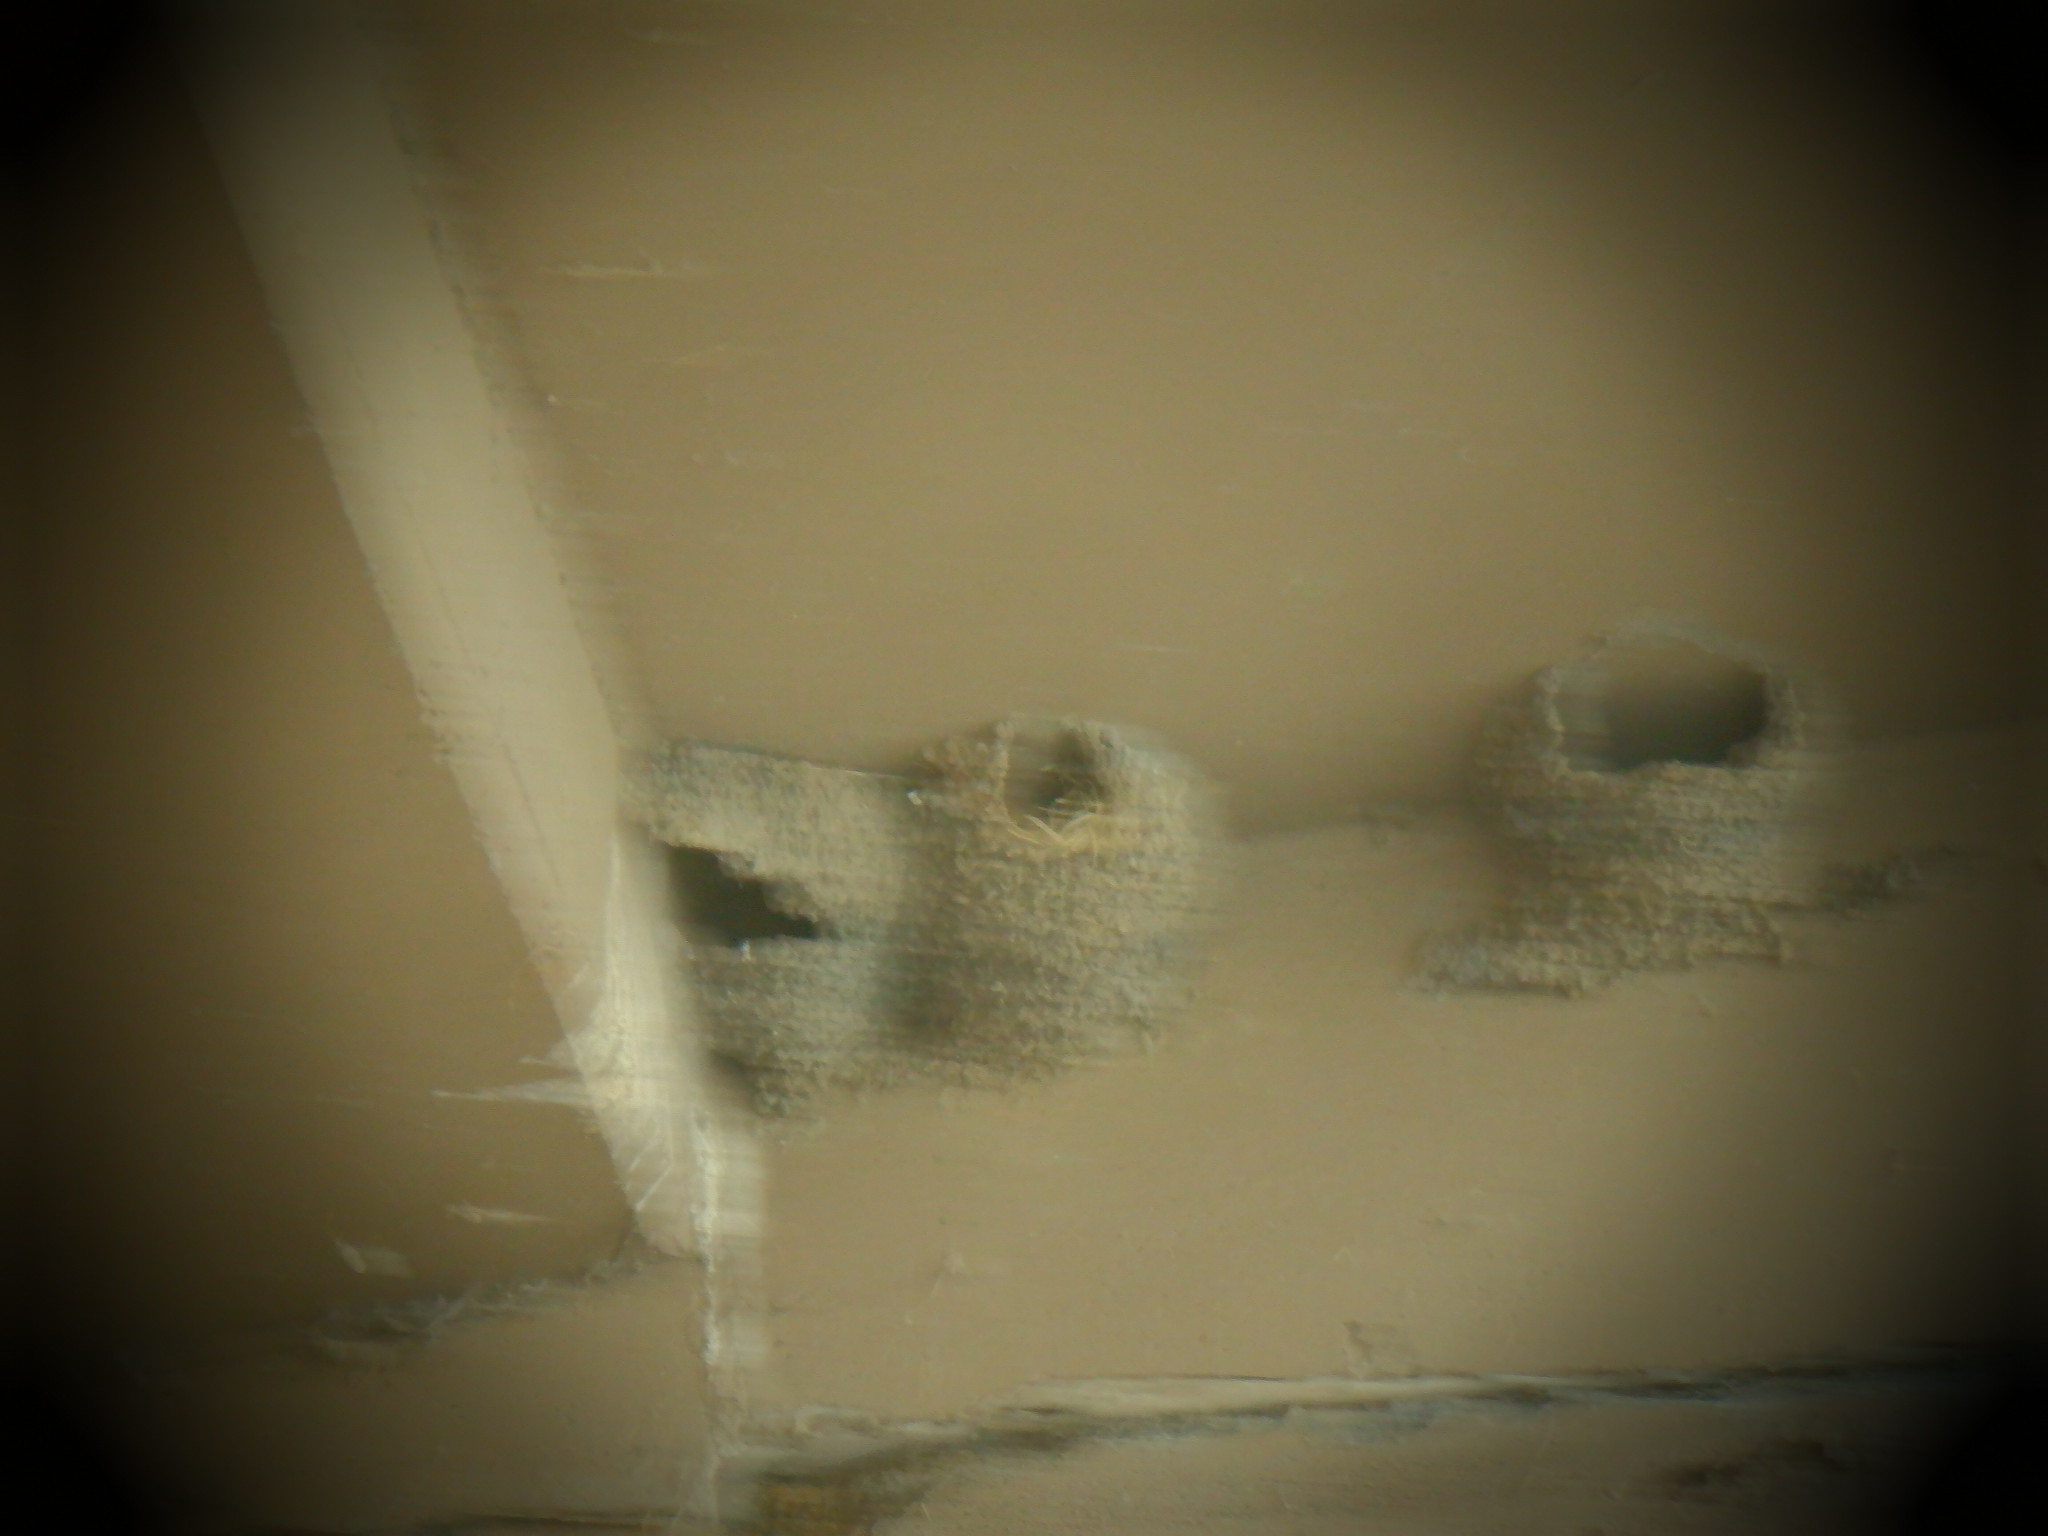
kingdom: Animalia
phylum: Chordata
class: Aves
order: Passeriformes
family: Hirundinidae
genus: Petrochelidon
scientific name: Petrochelidon pyrrhonota
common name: American cliff swallow
